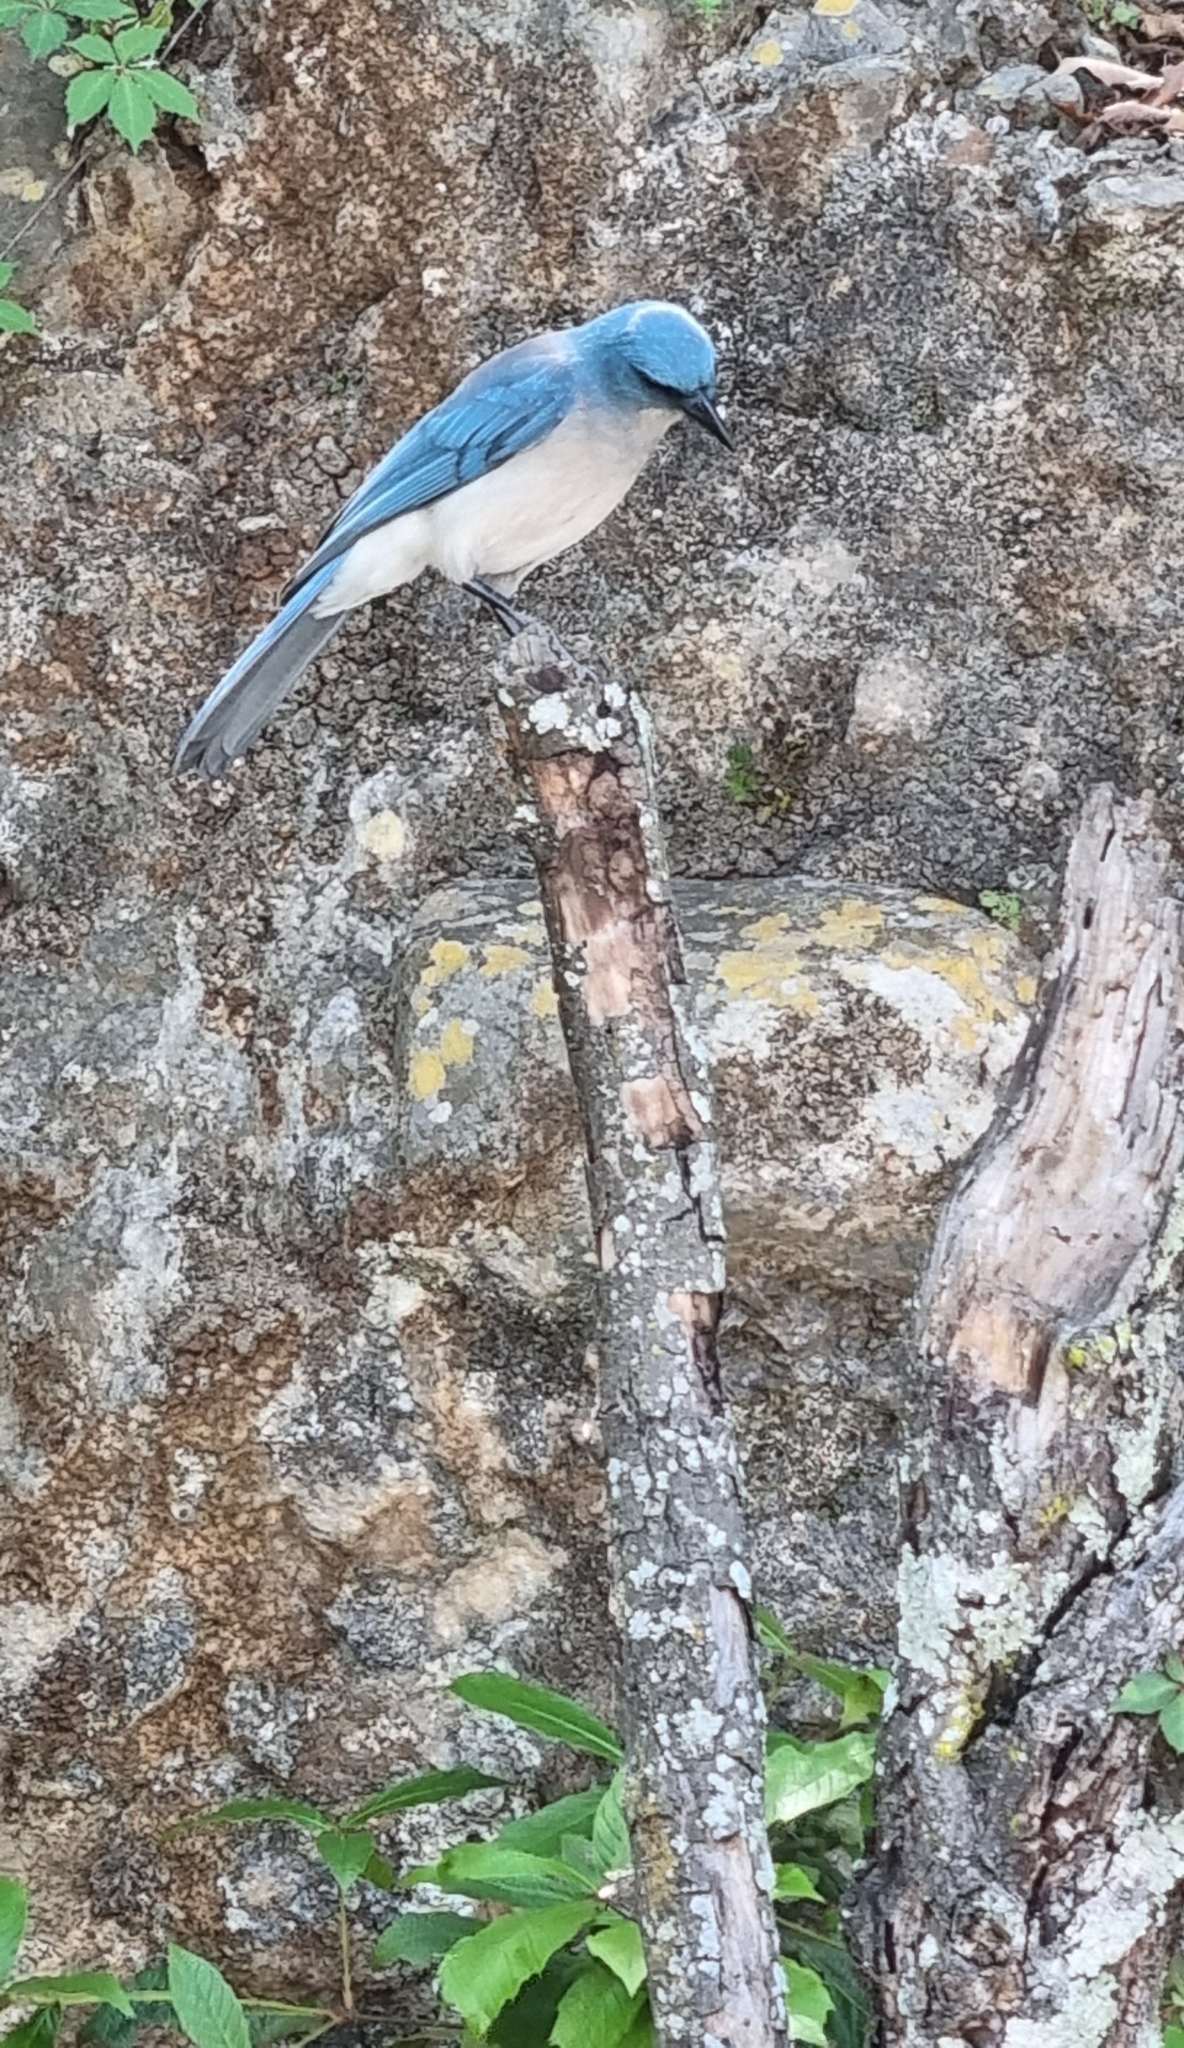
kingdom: Animalia
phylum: Chordata
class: Aves
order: Passeriformes
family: Corvidae
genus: Aphelocoma
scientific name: Aphelocoma wollweberi
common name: Mexican jay
